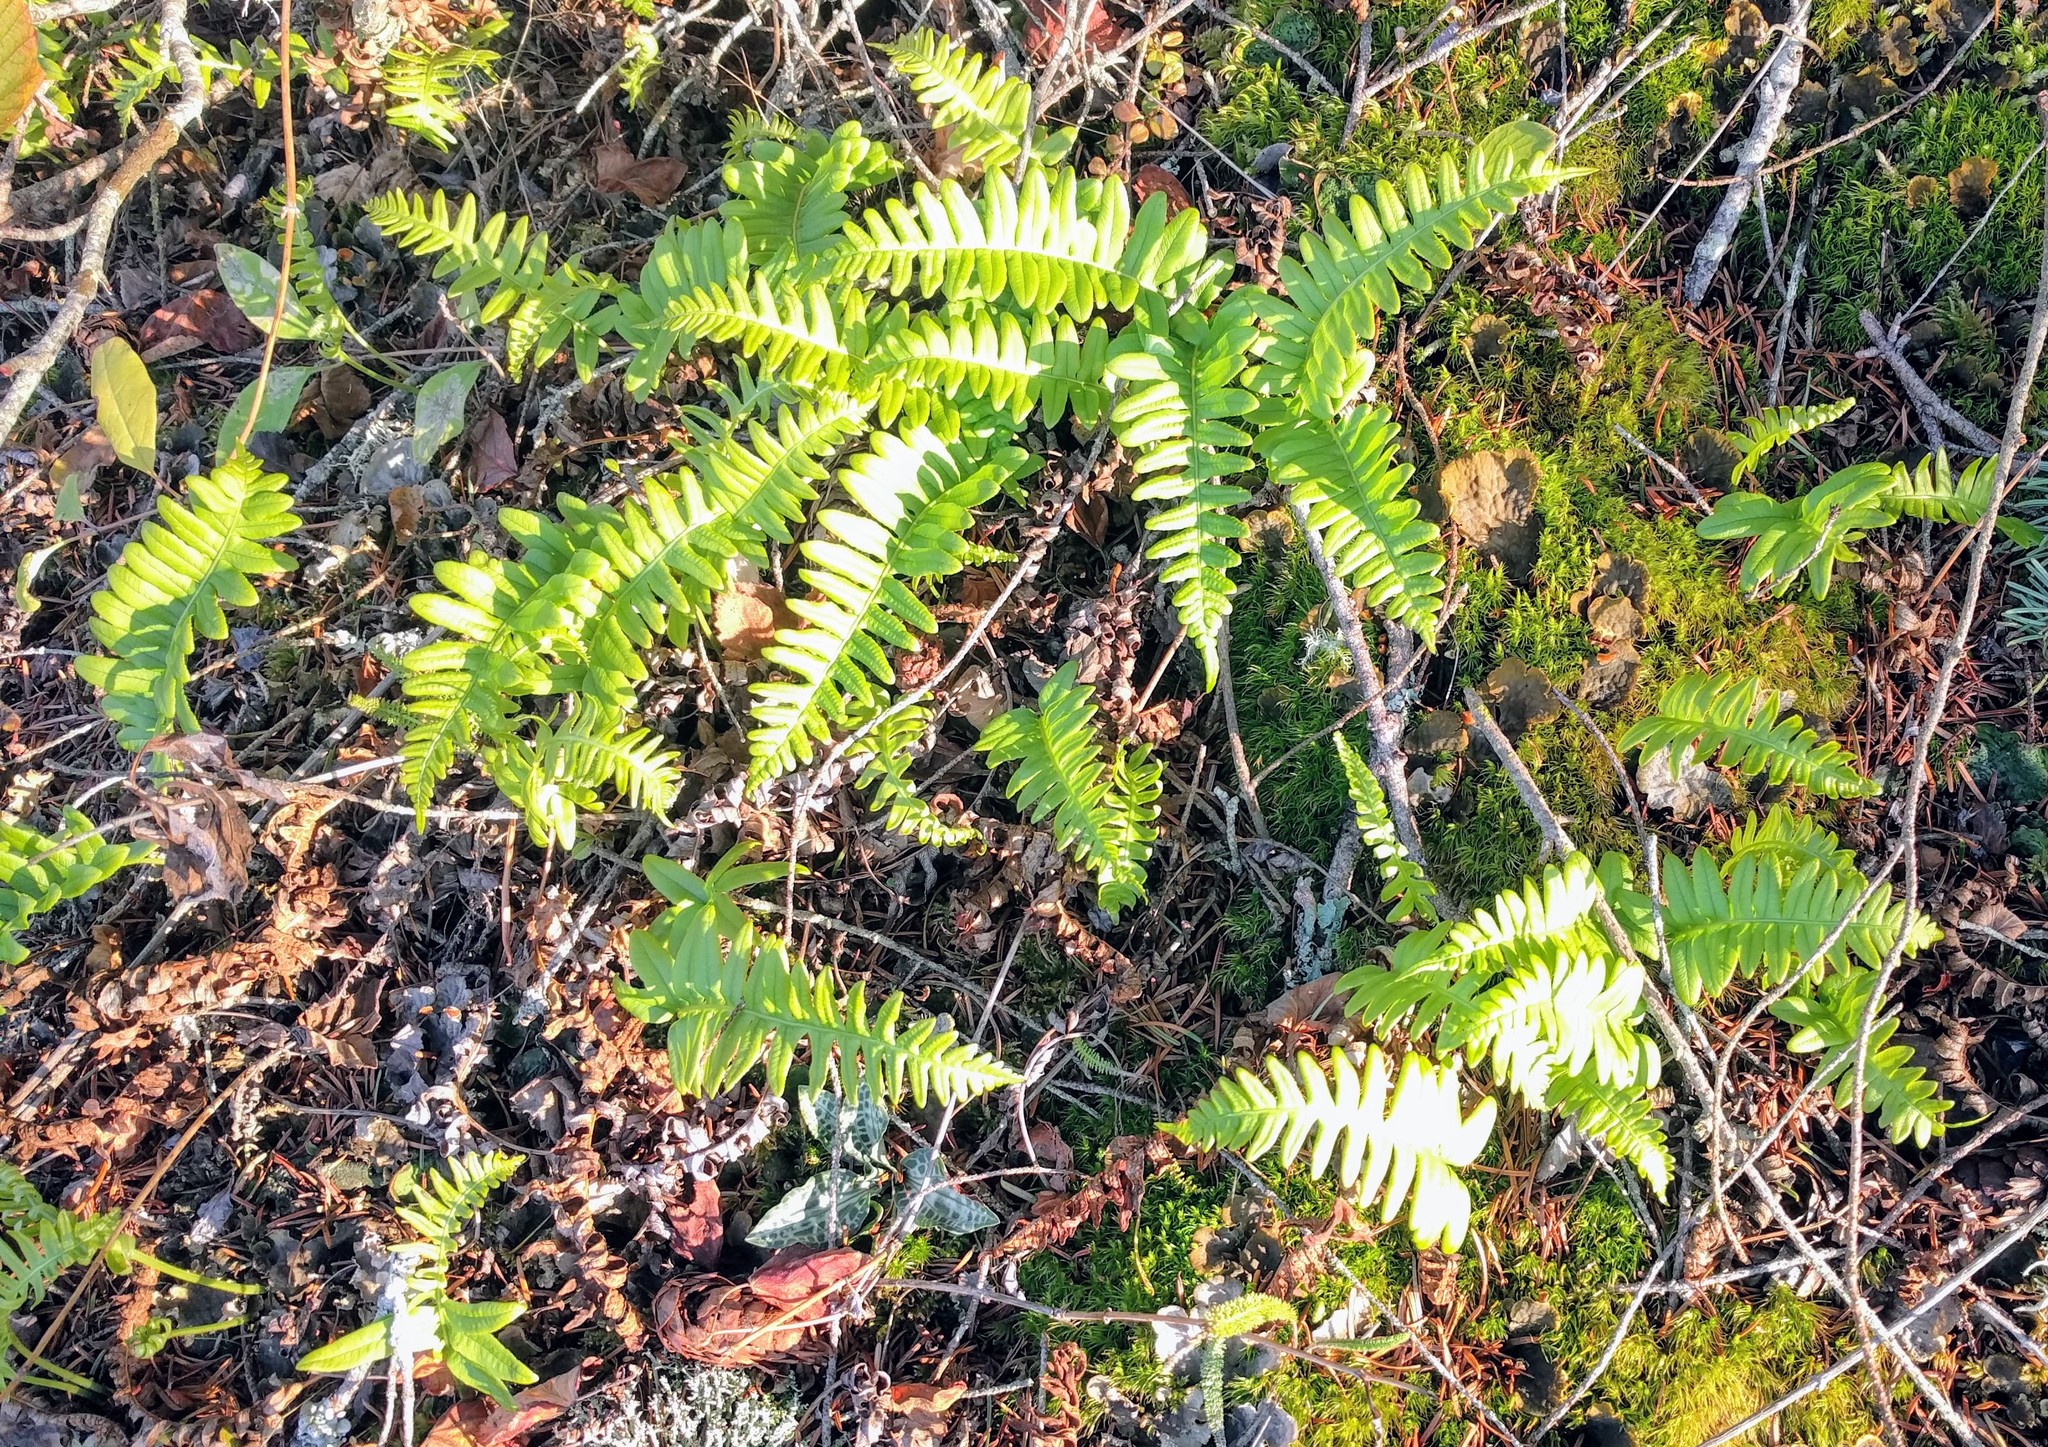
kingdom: Plantae
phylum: Tracheophyta
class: Polypodiopsida
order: Polypodiales
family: Polypodiaceae
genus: Polypodium
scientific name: Polypodium glycyrrhiza
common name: Licorice fern
